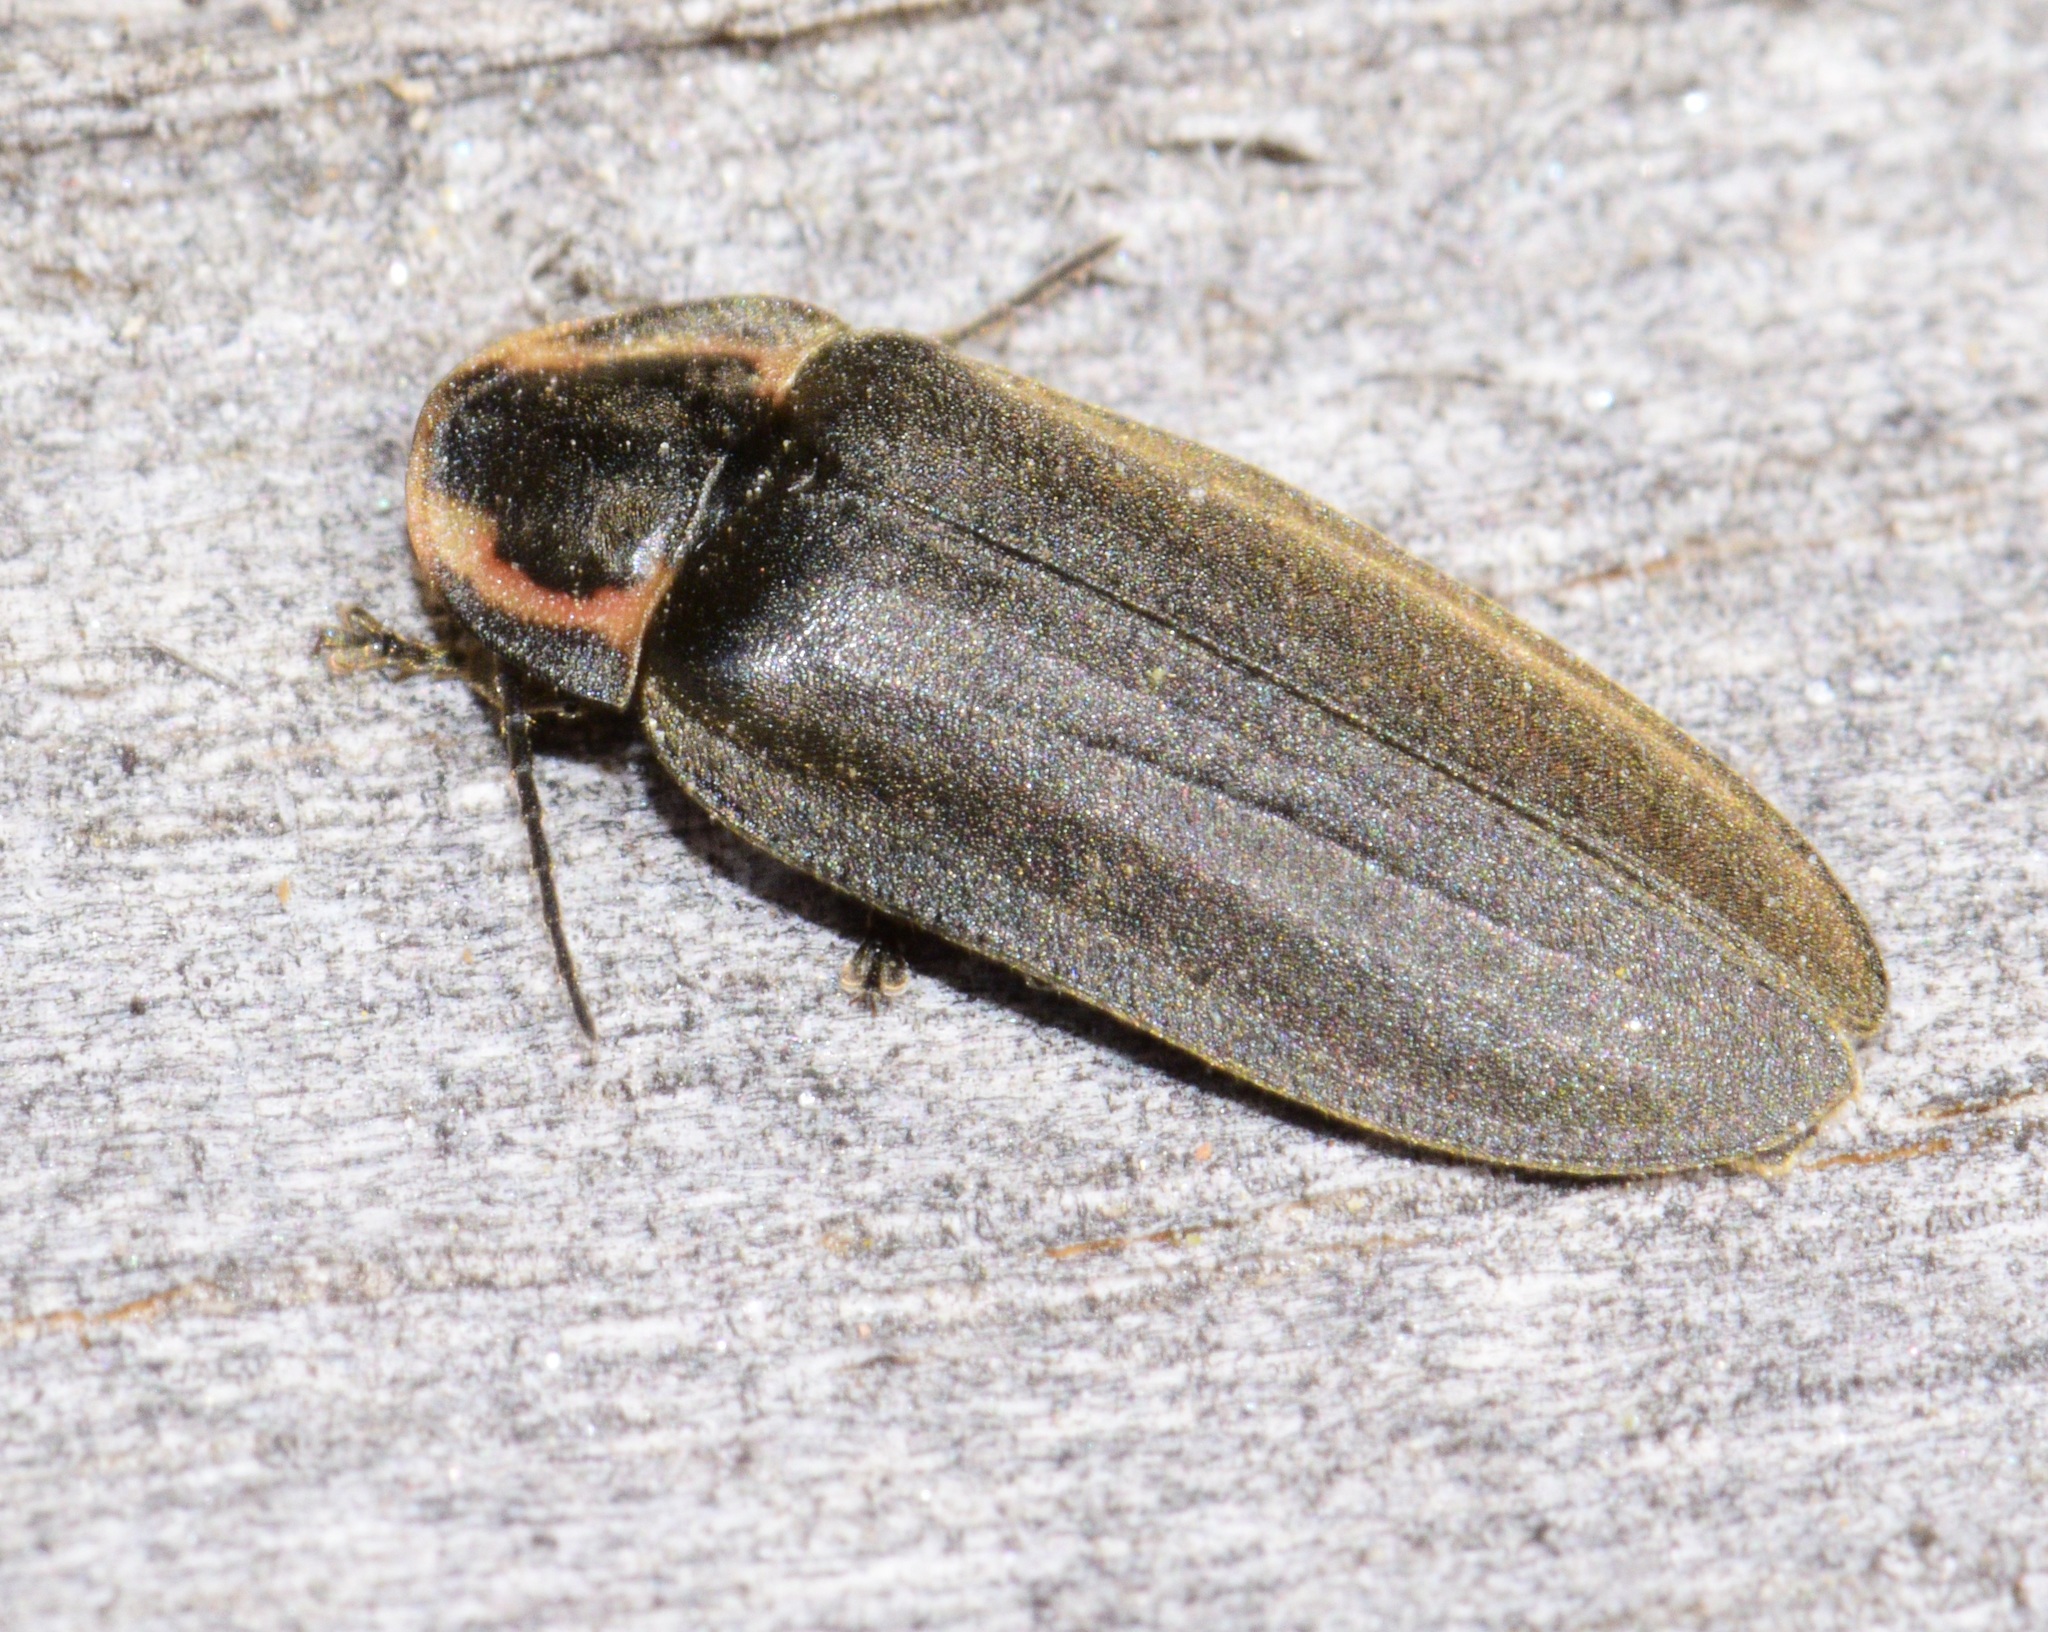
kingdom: Animalia
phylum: Arthropoda
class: Insecta
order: Coleoptera
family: Lampyridae
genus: Photinus
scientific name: Photinus corrusca
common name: Winter firefly
